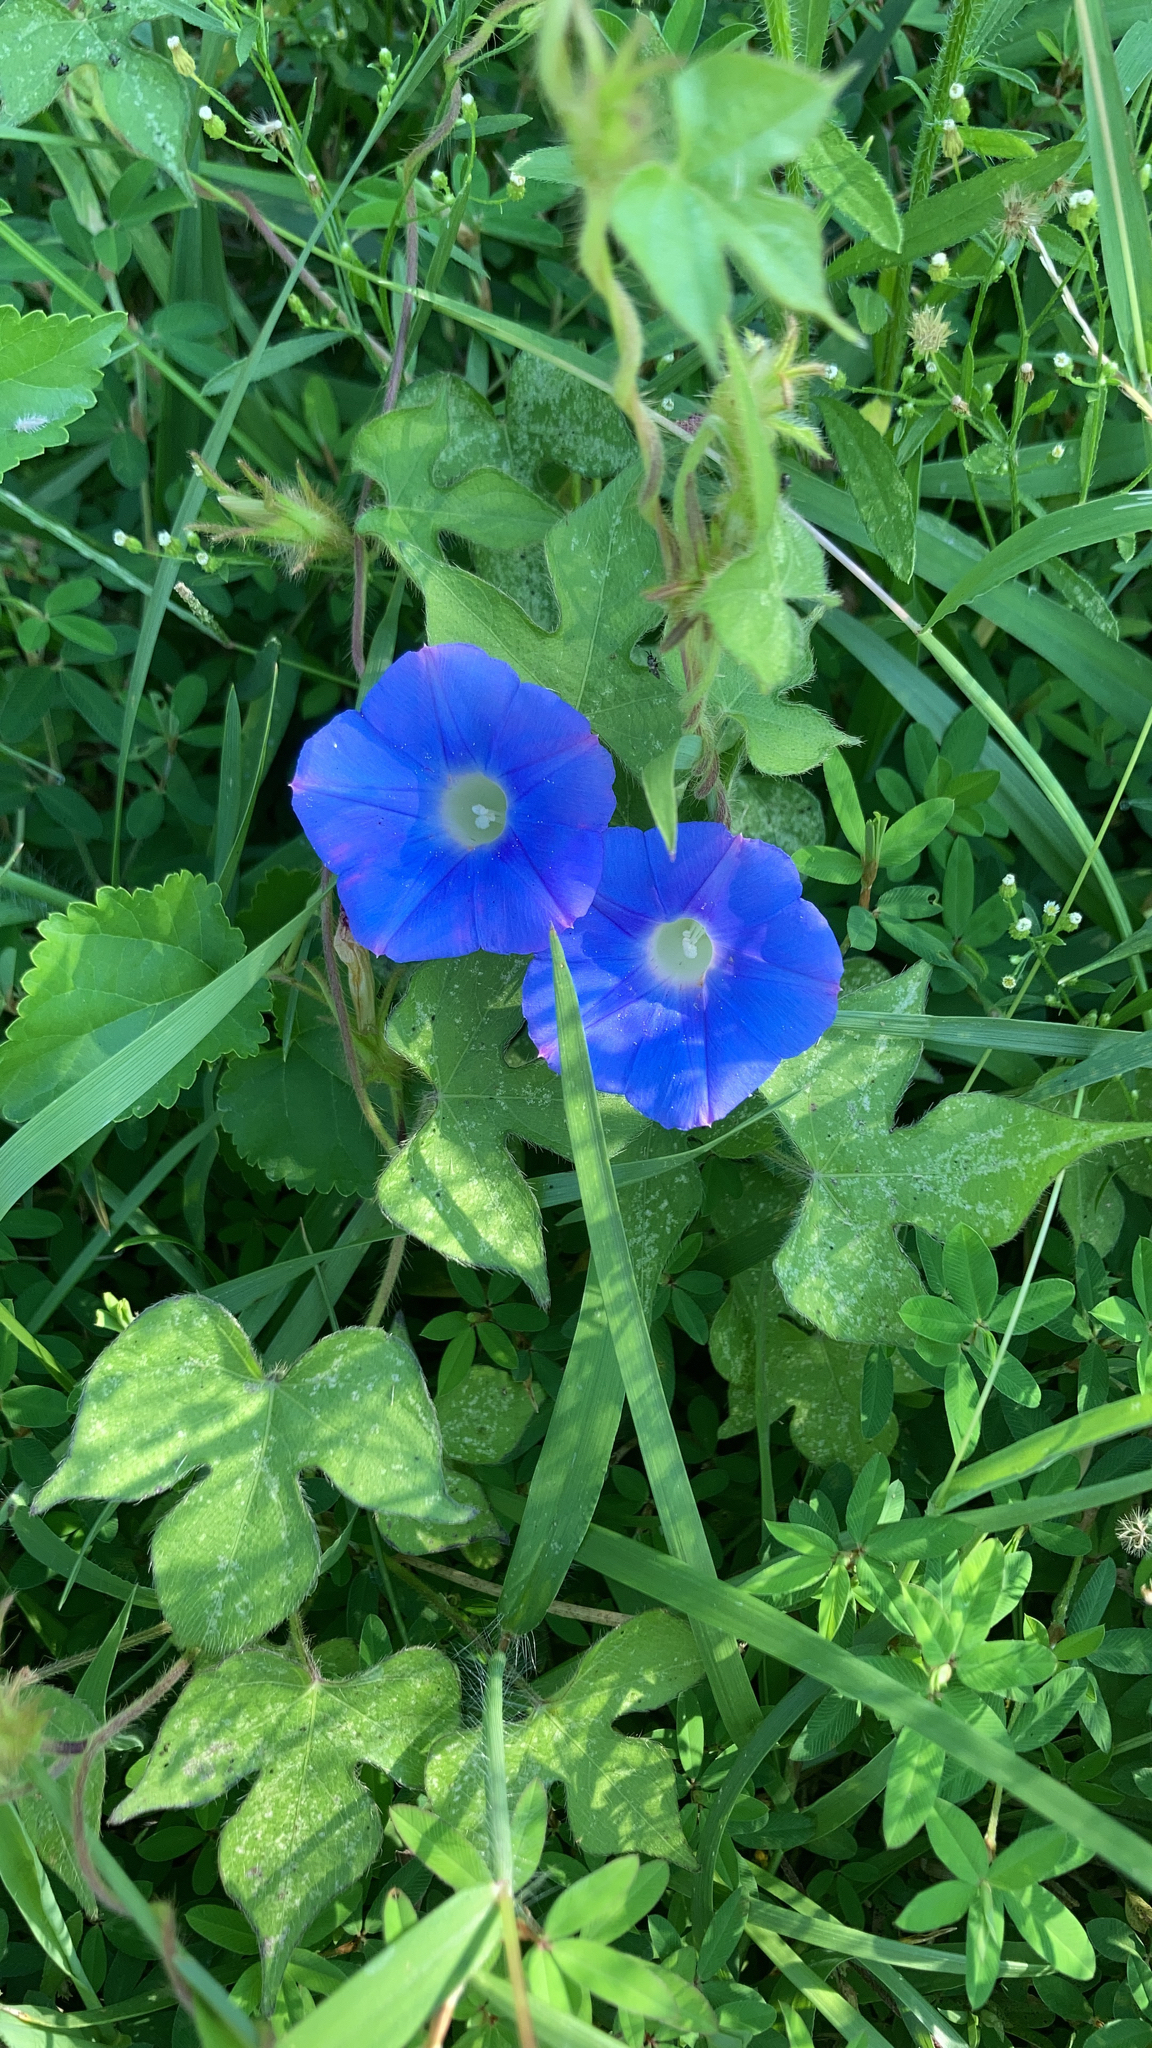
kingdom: Plantae
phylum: Tracheophyta
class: Magnoliopsida
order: Solanales
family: Convolvulaceae
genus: Ipomoea
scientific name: Ipomoea hederacea
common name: Ivy-leaved morning-glory
